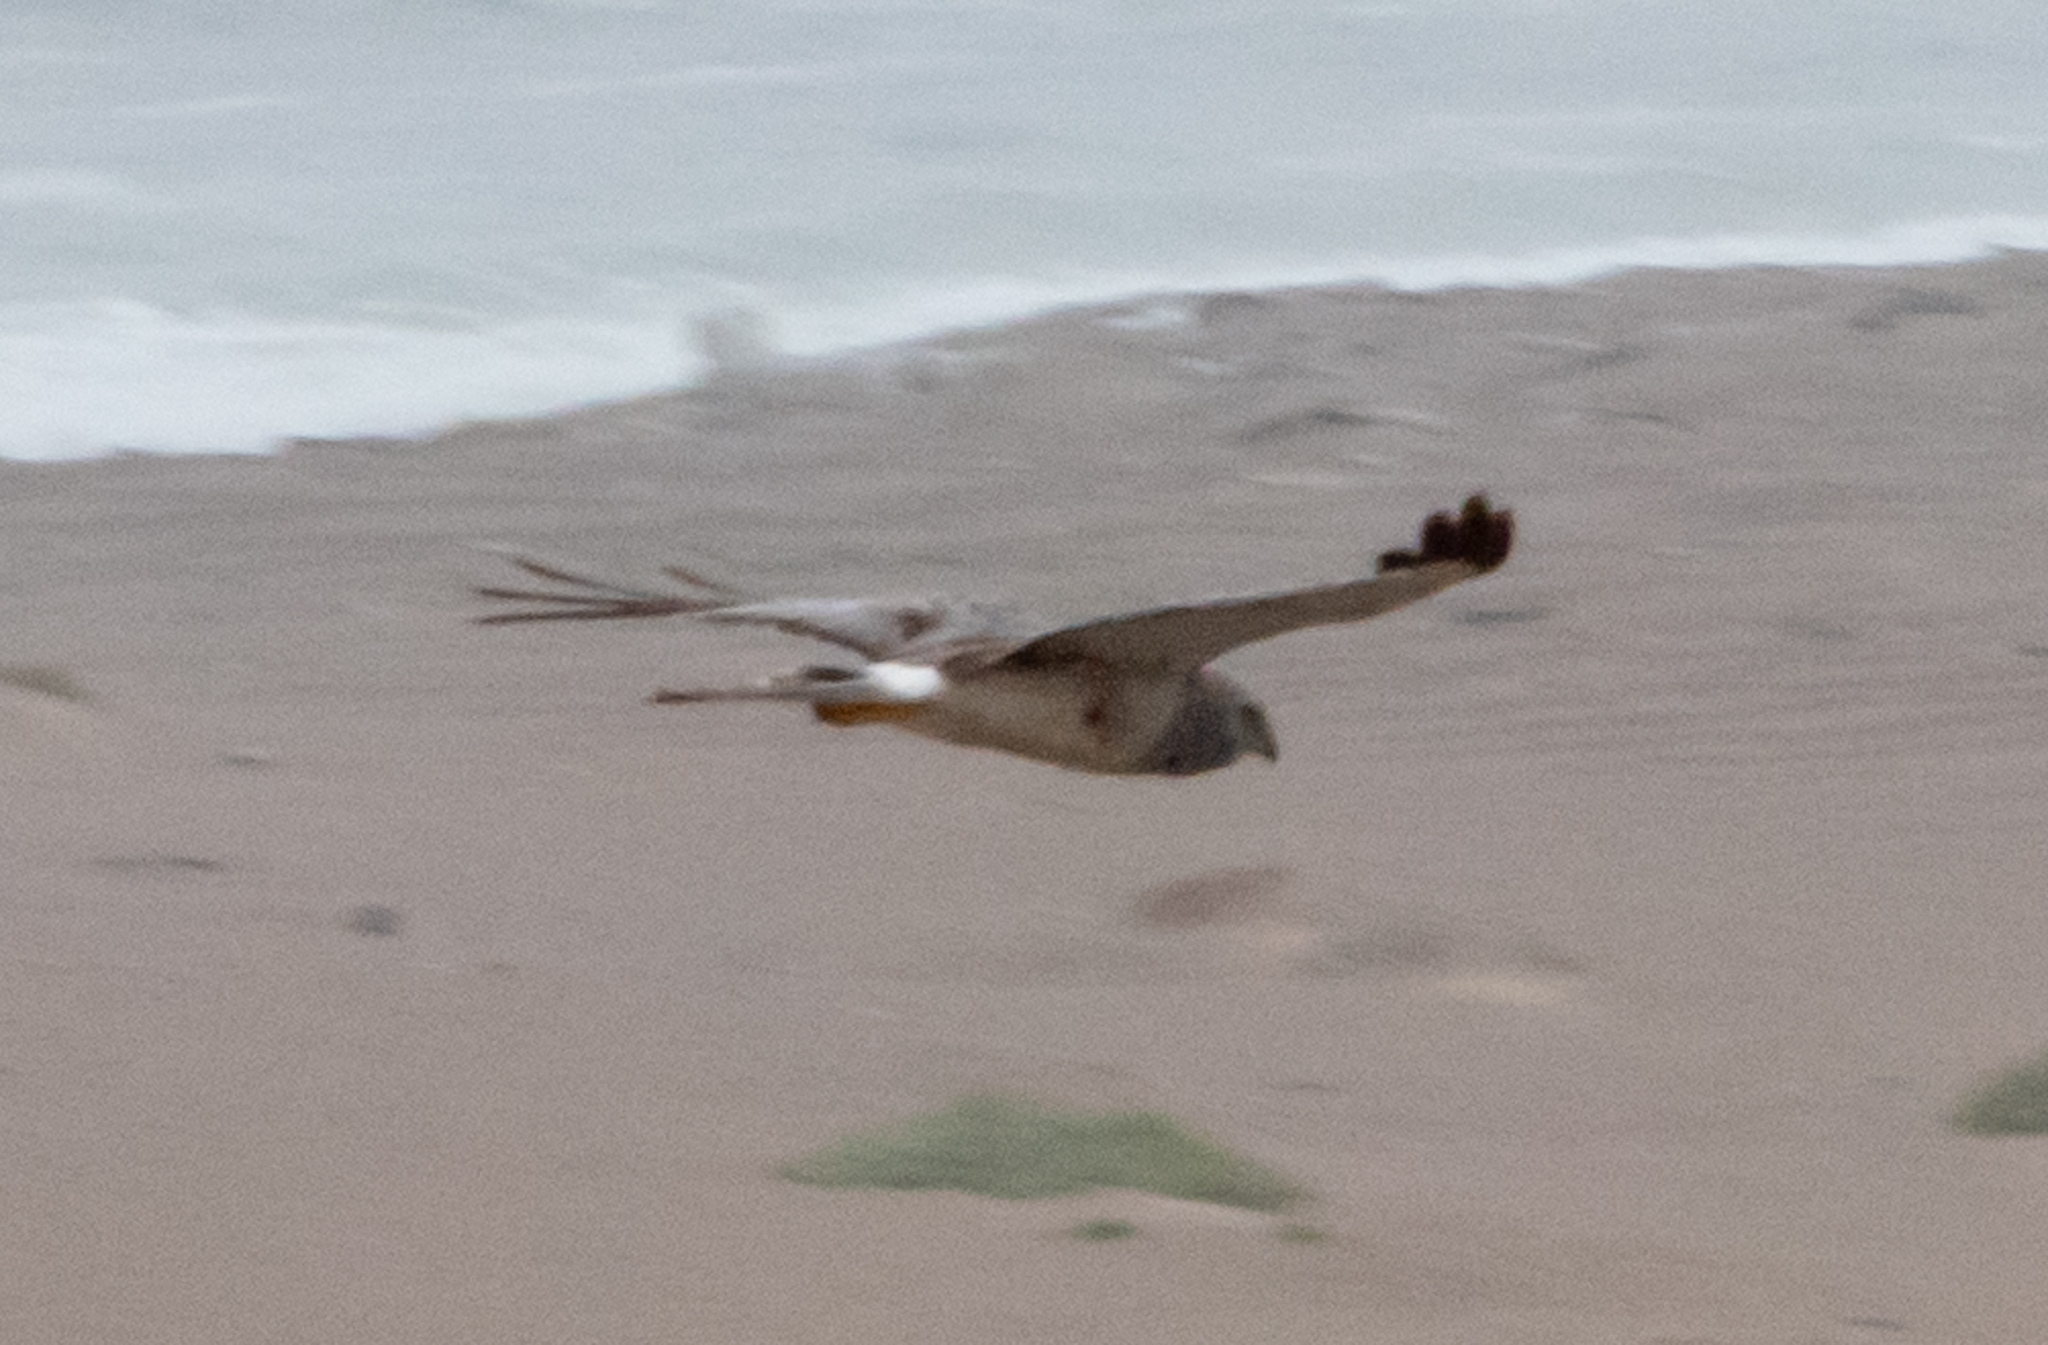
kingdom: Animalia
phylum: Chordata
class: Aves
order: Accipitriformes
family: Accipitridae
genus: Circus
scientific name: Circus cyaneus
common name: Hen harrier
